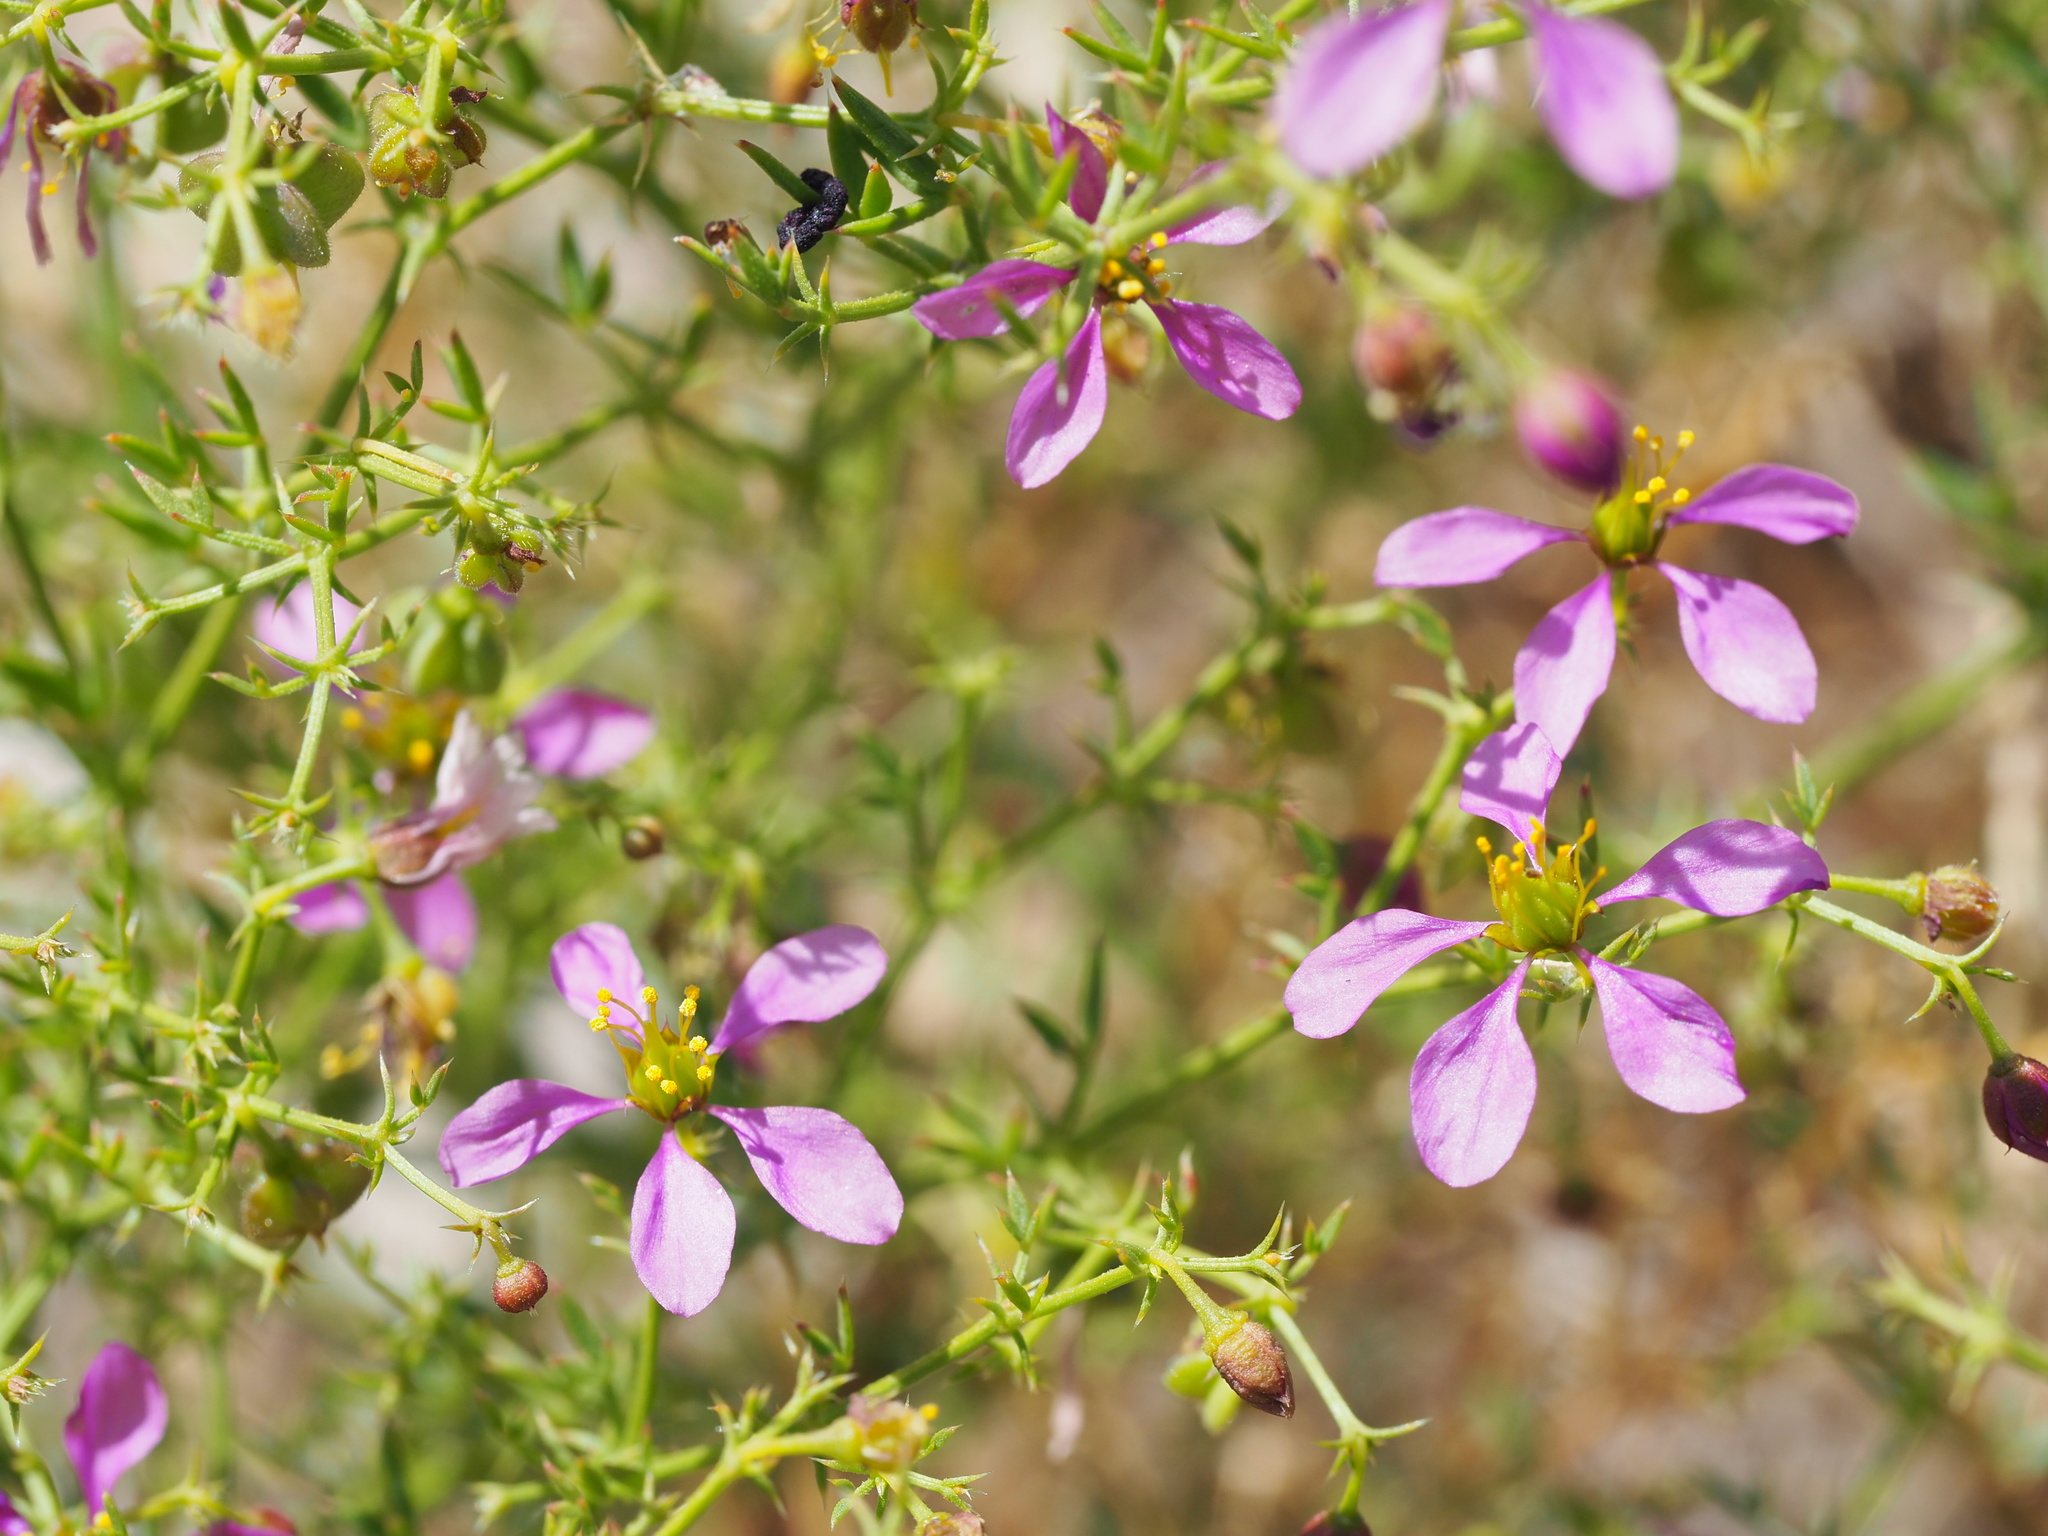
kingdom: Plantae
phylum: Tracheophyta
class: Magnoliopsida
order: Zygophyllales
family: Zygophyllaceae
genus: Fagonia
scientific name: Fagonia laevis
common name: California fagonbush
